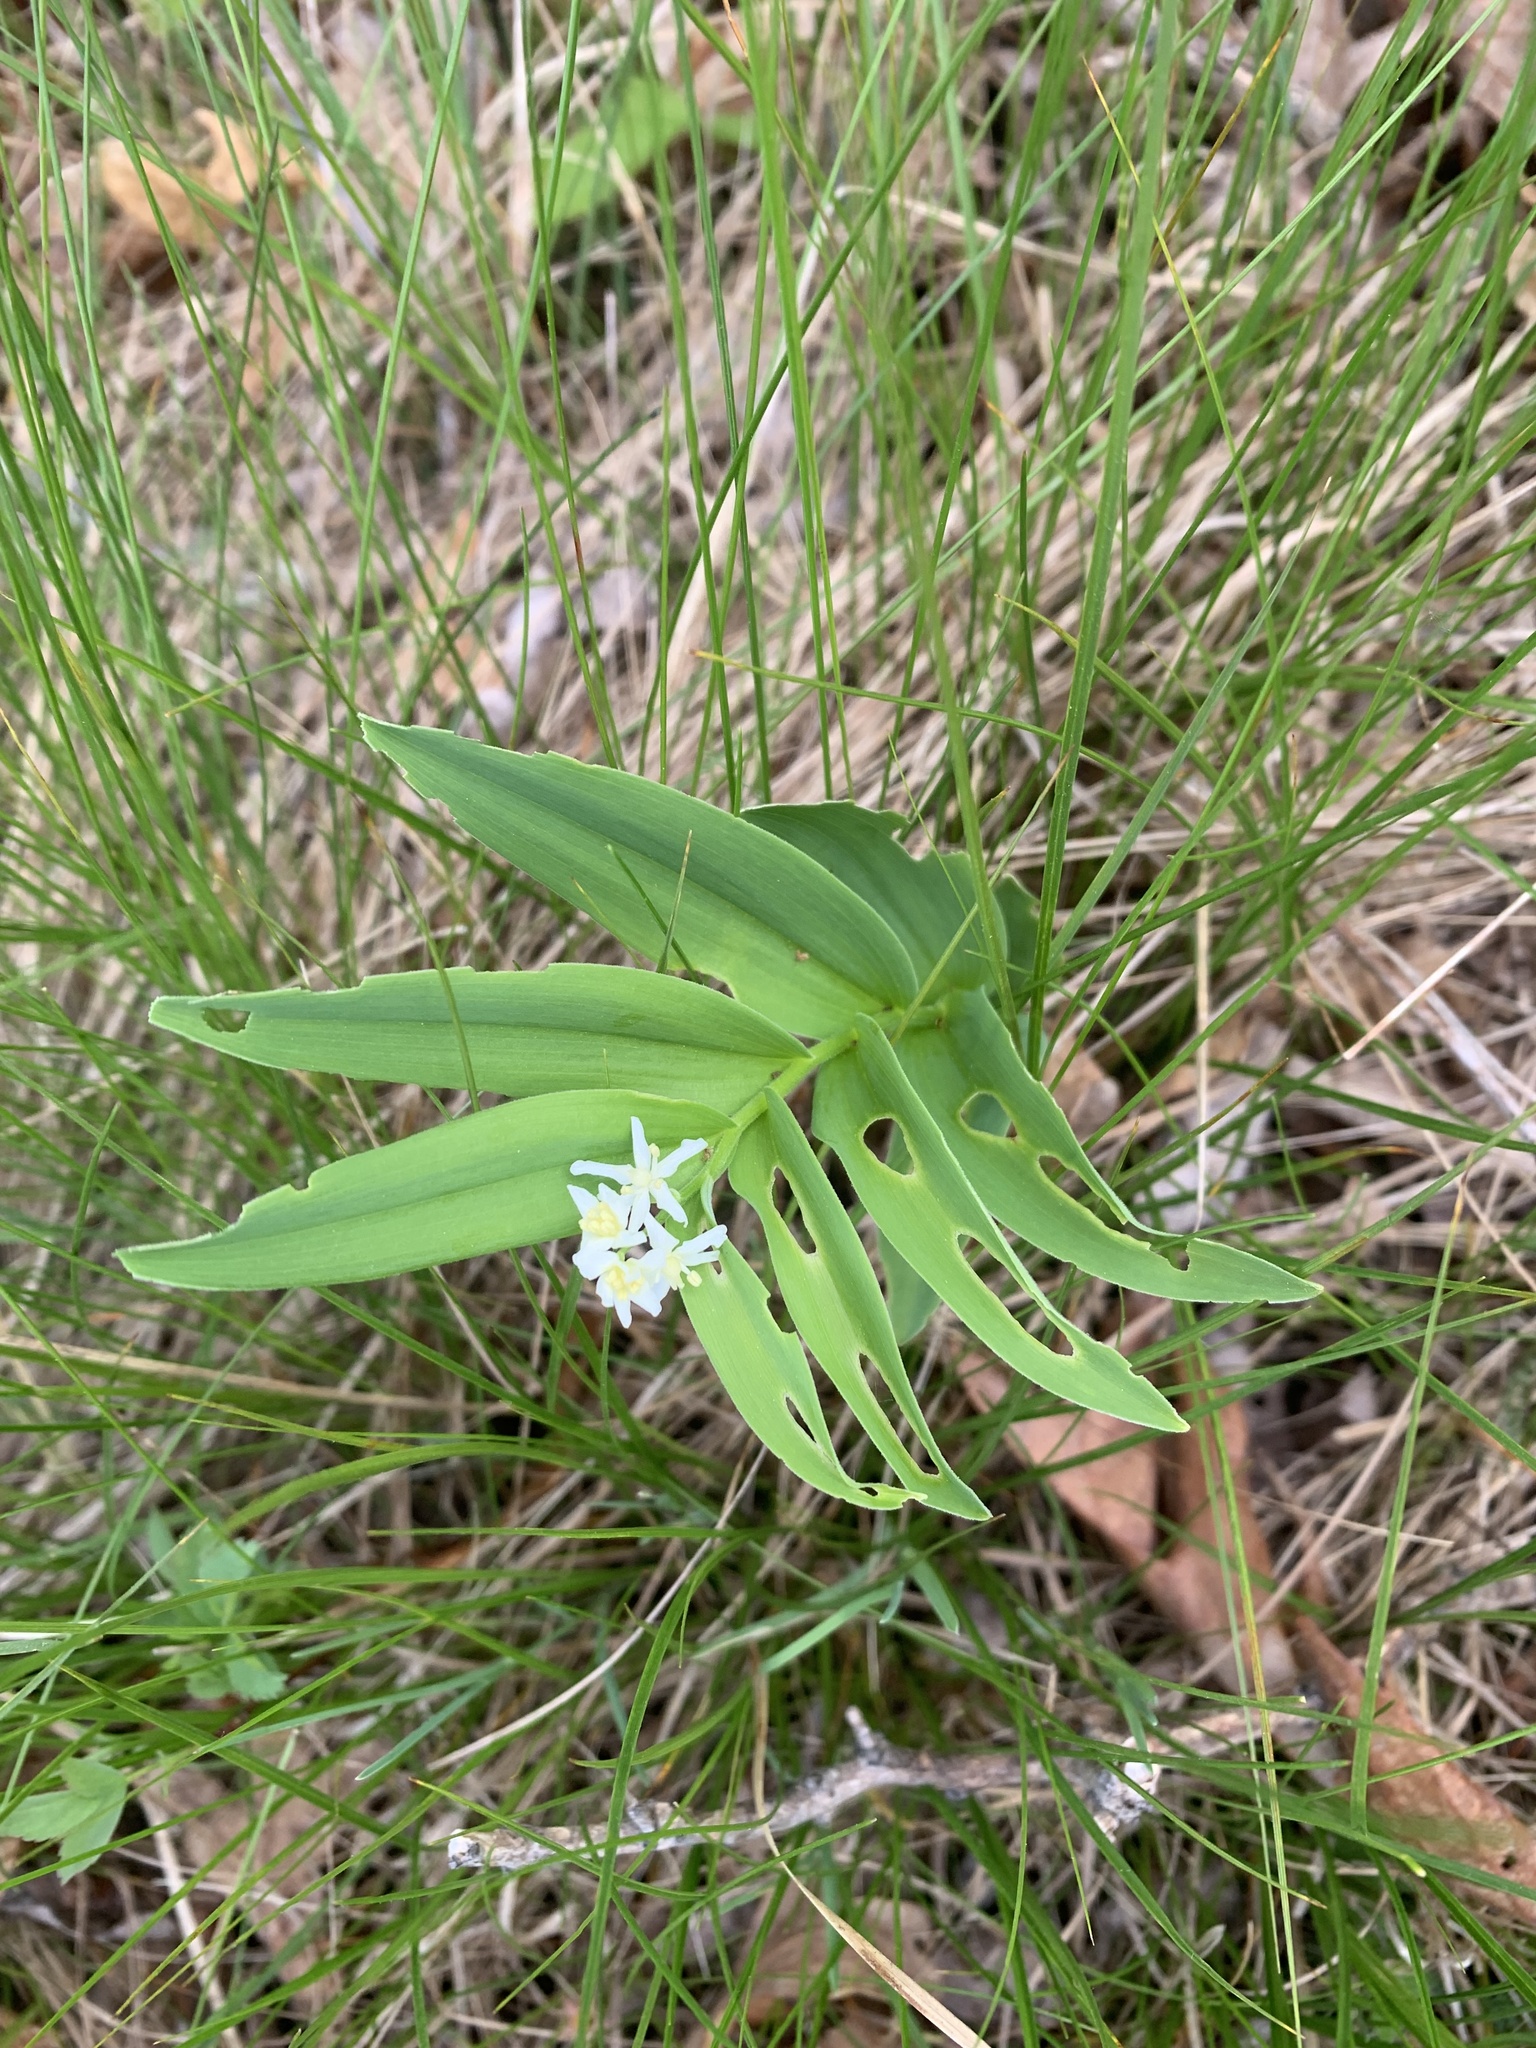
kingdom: Plantae
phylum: Tracheophyta
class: Liliopsida
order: Asparagales
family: Asparagaceae
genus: Maianthemum
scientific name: Maianthemum stellatum
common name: Little false solomon's seal
